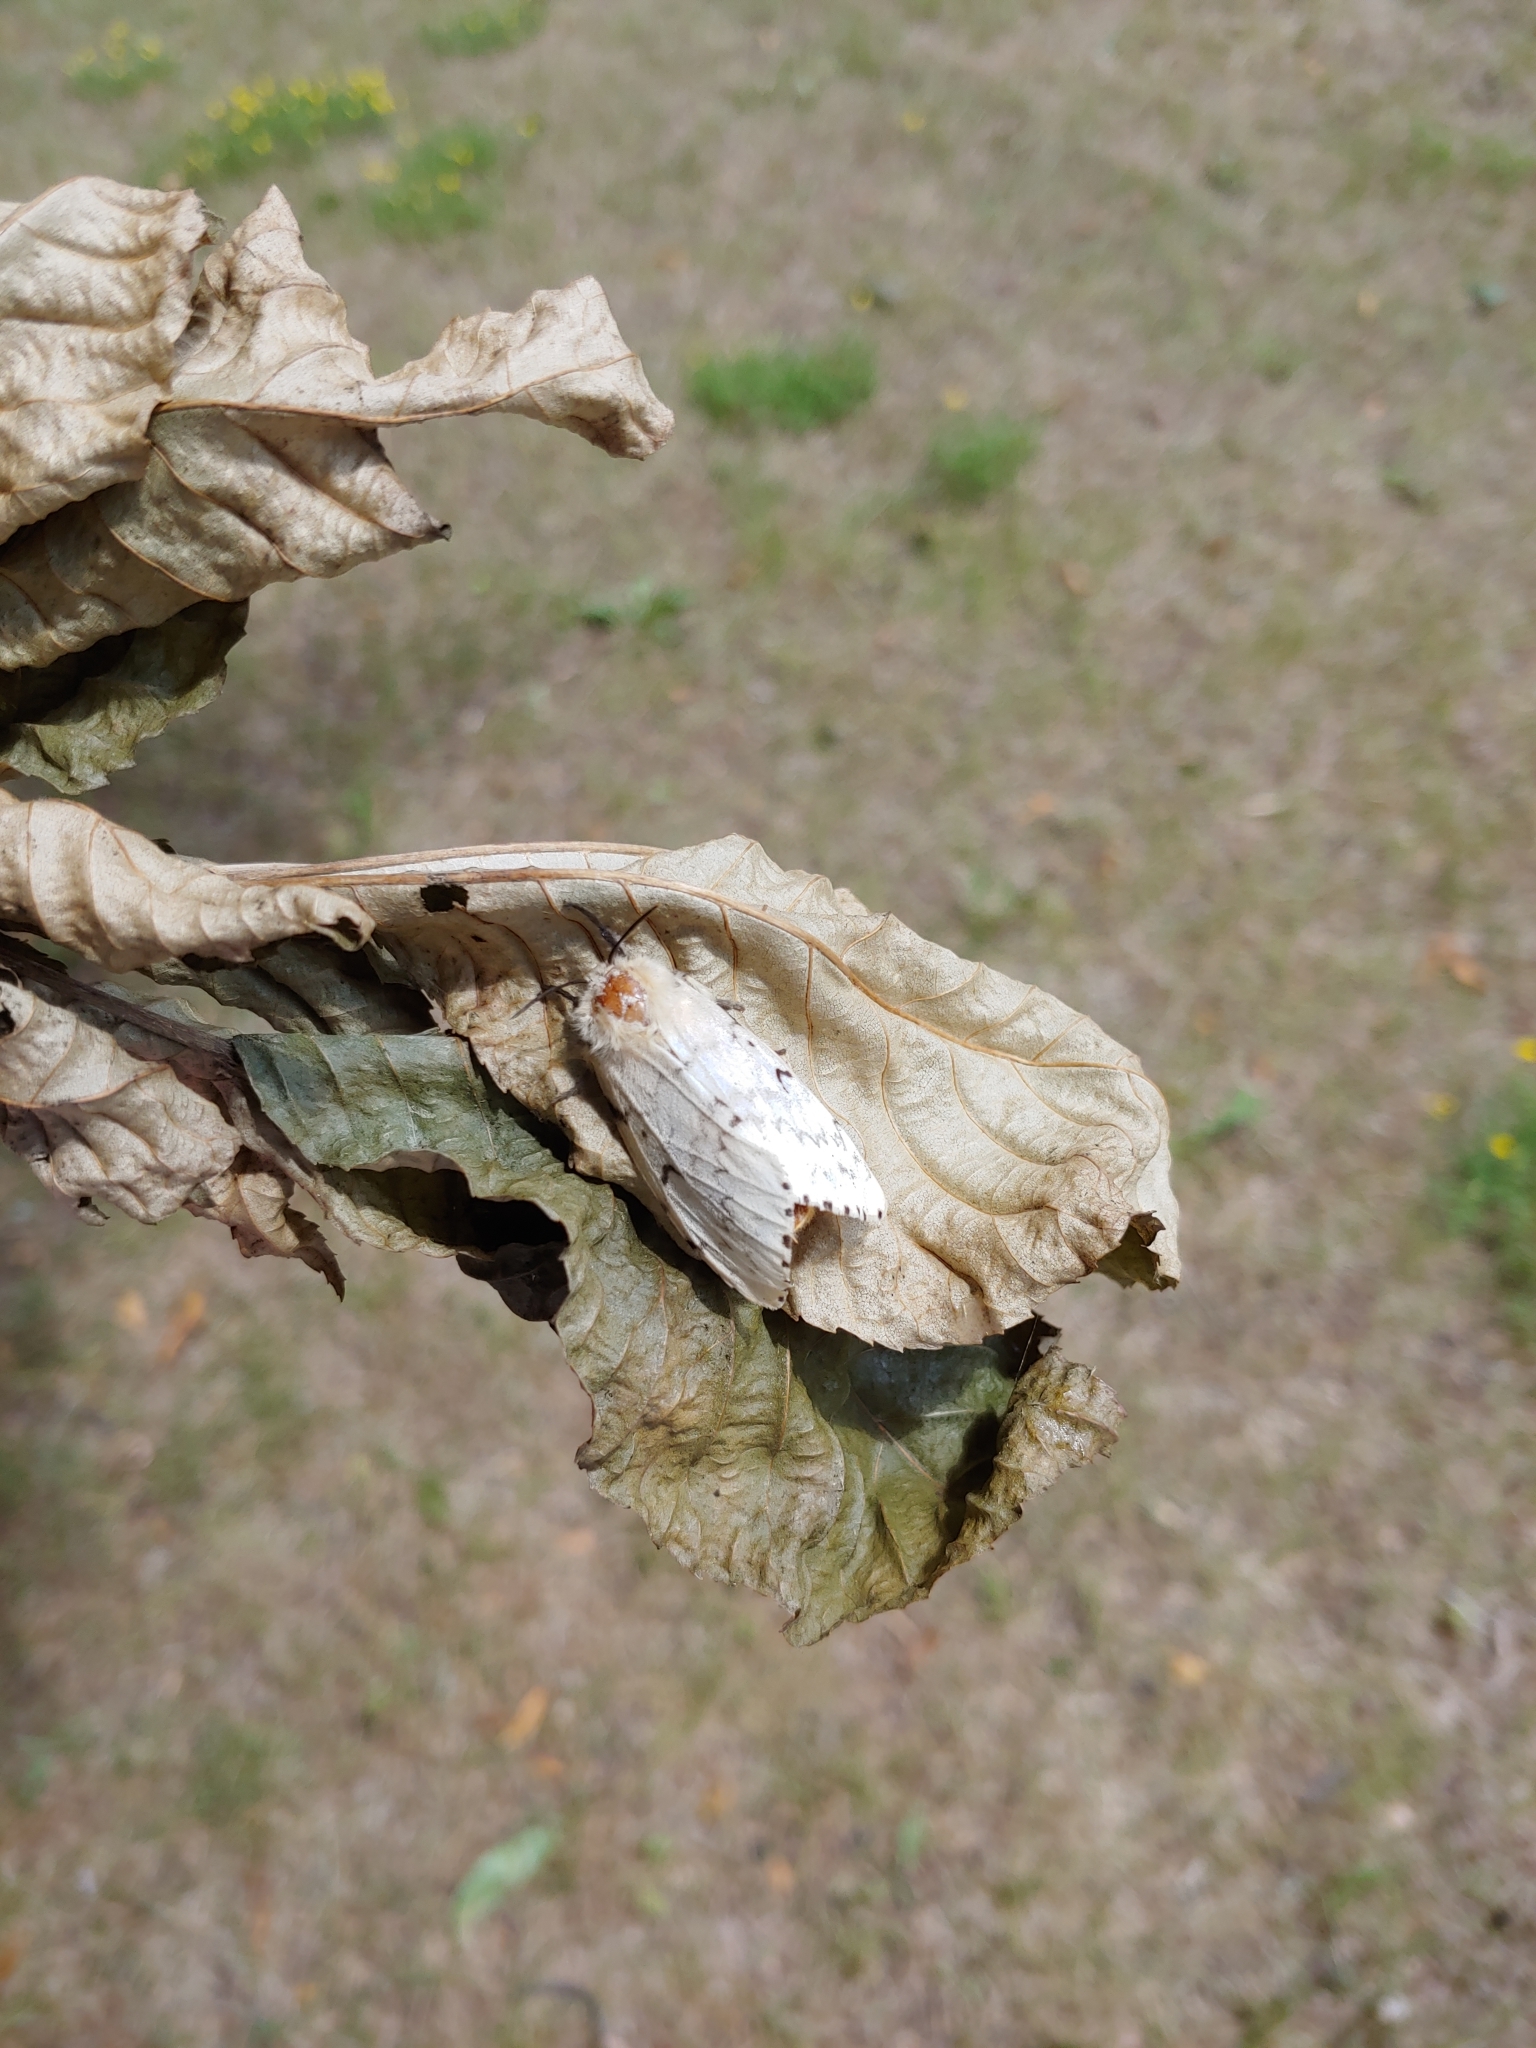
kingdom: Animalia
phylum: Arthropoda
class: Insecta
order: Lepidoptera
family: Erebidae
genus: Lymantria
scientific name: Lymantria dispar
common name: Gypsy moth
